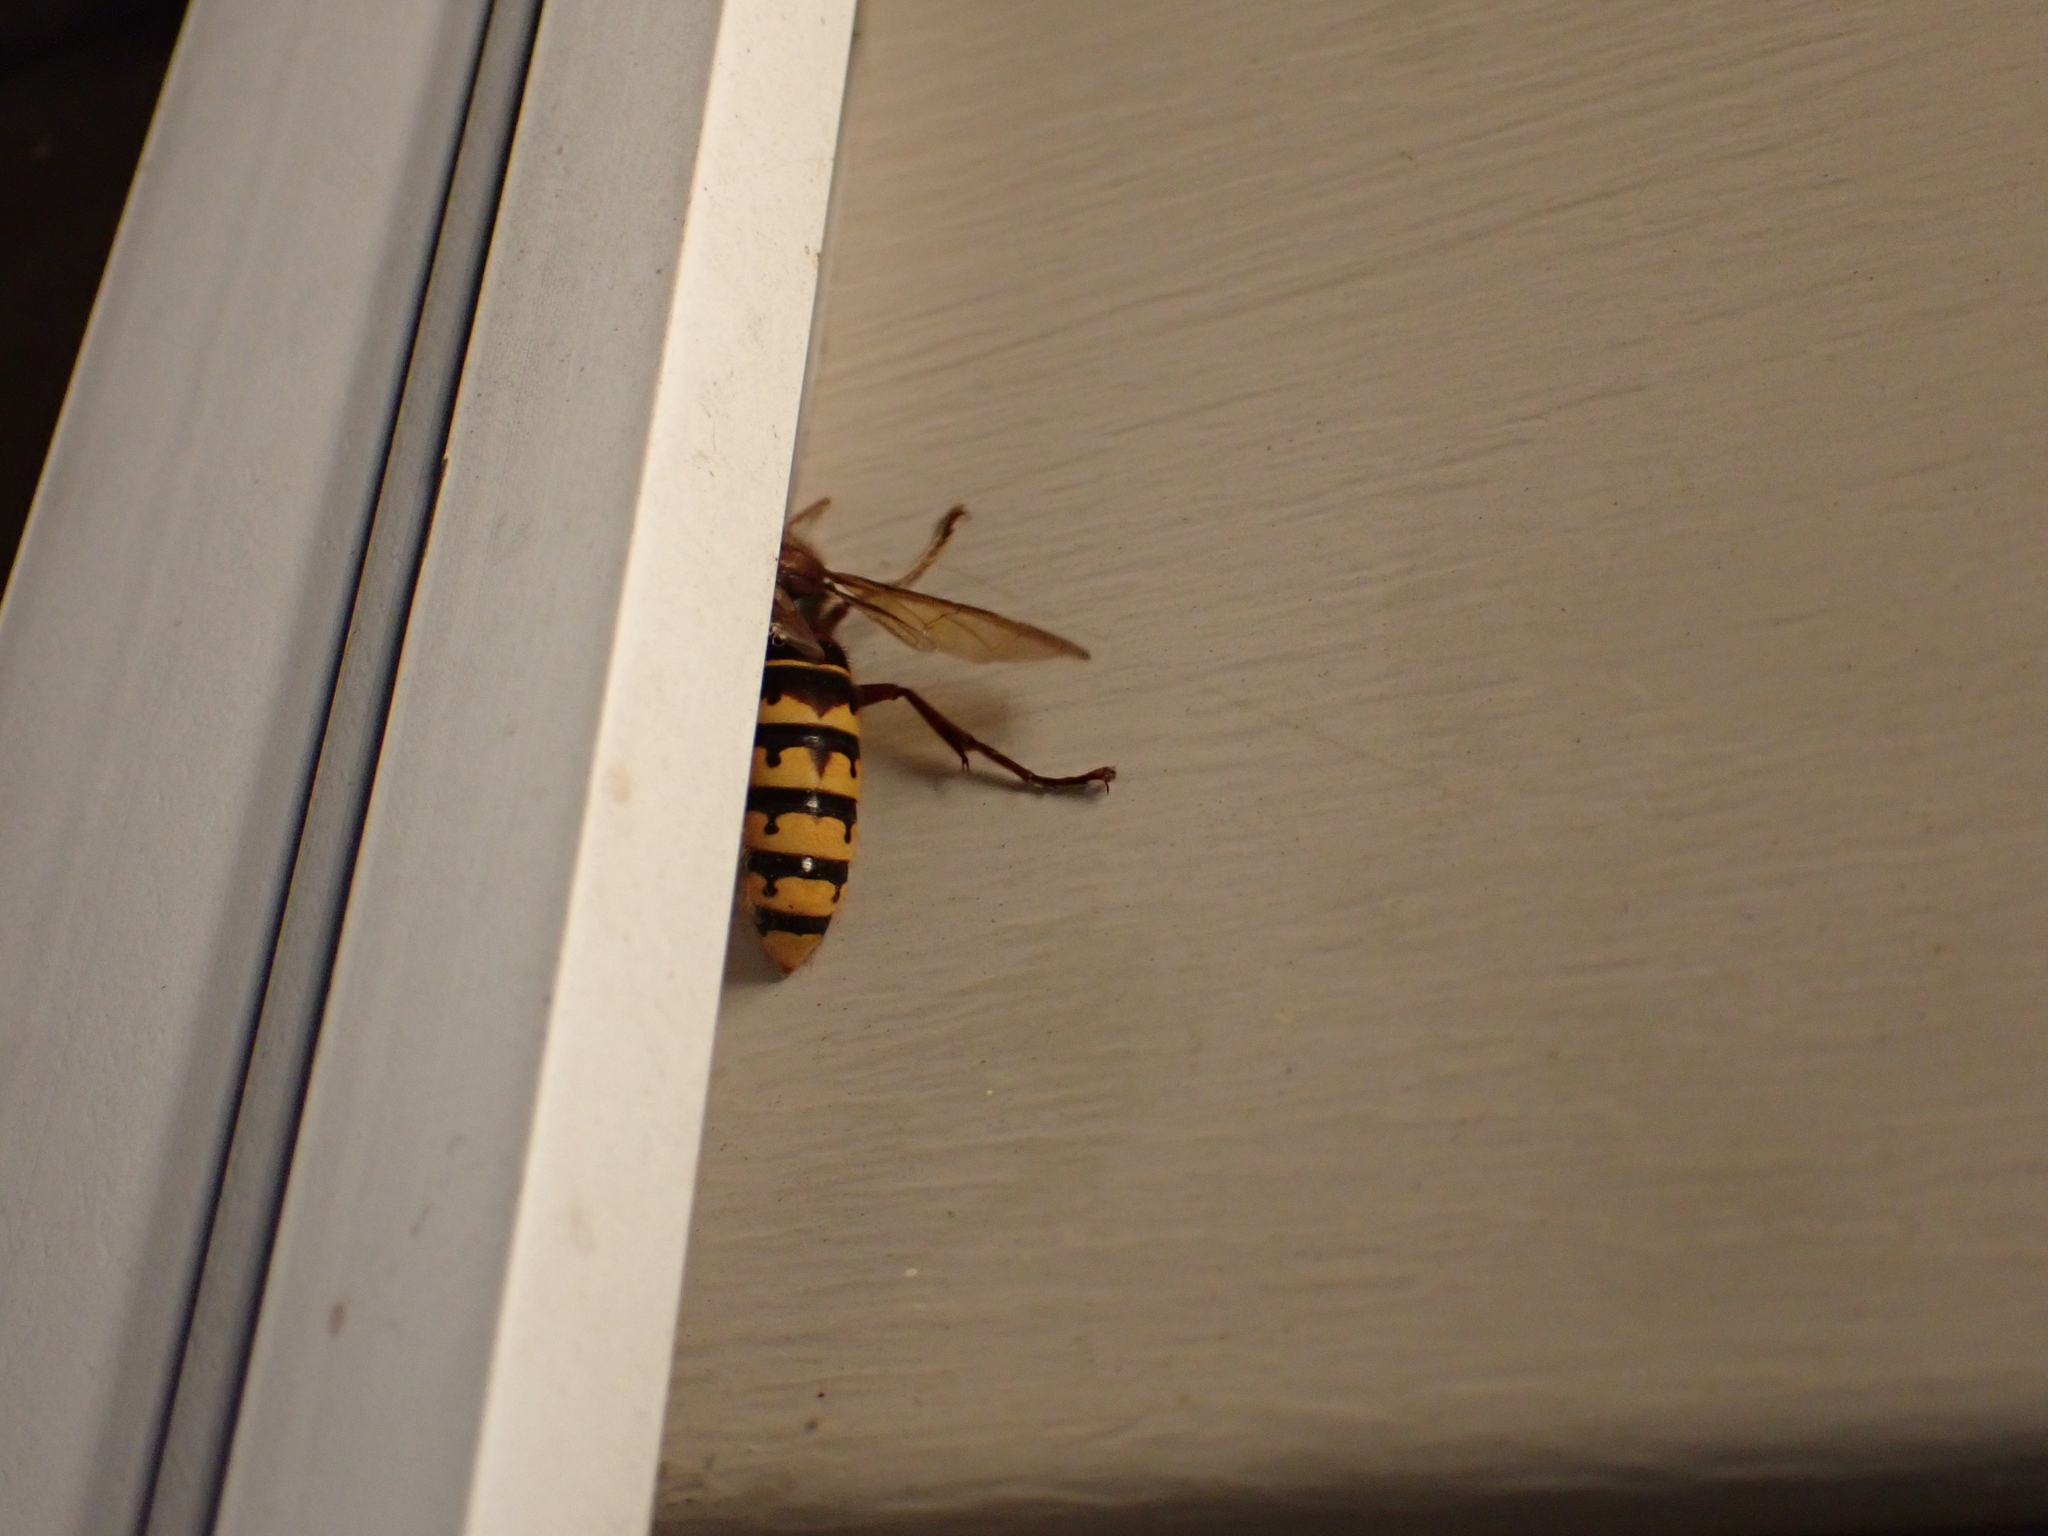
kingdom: Animalia
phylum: Arthropoda
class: Insecta
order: Hymenoptera
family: Vespidae
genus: Vespa
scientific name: Vespa crabro
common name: Hornet
